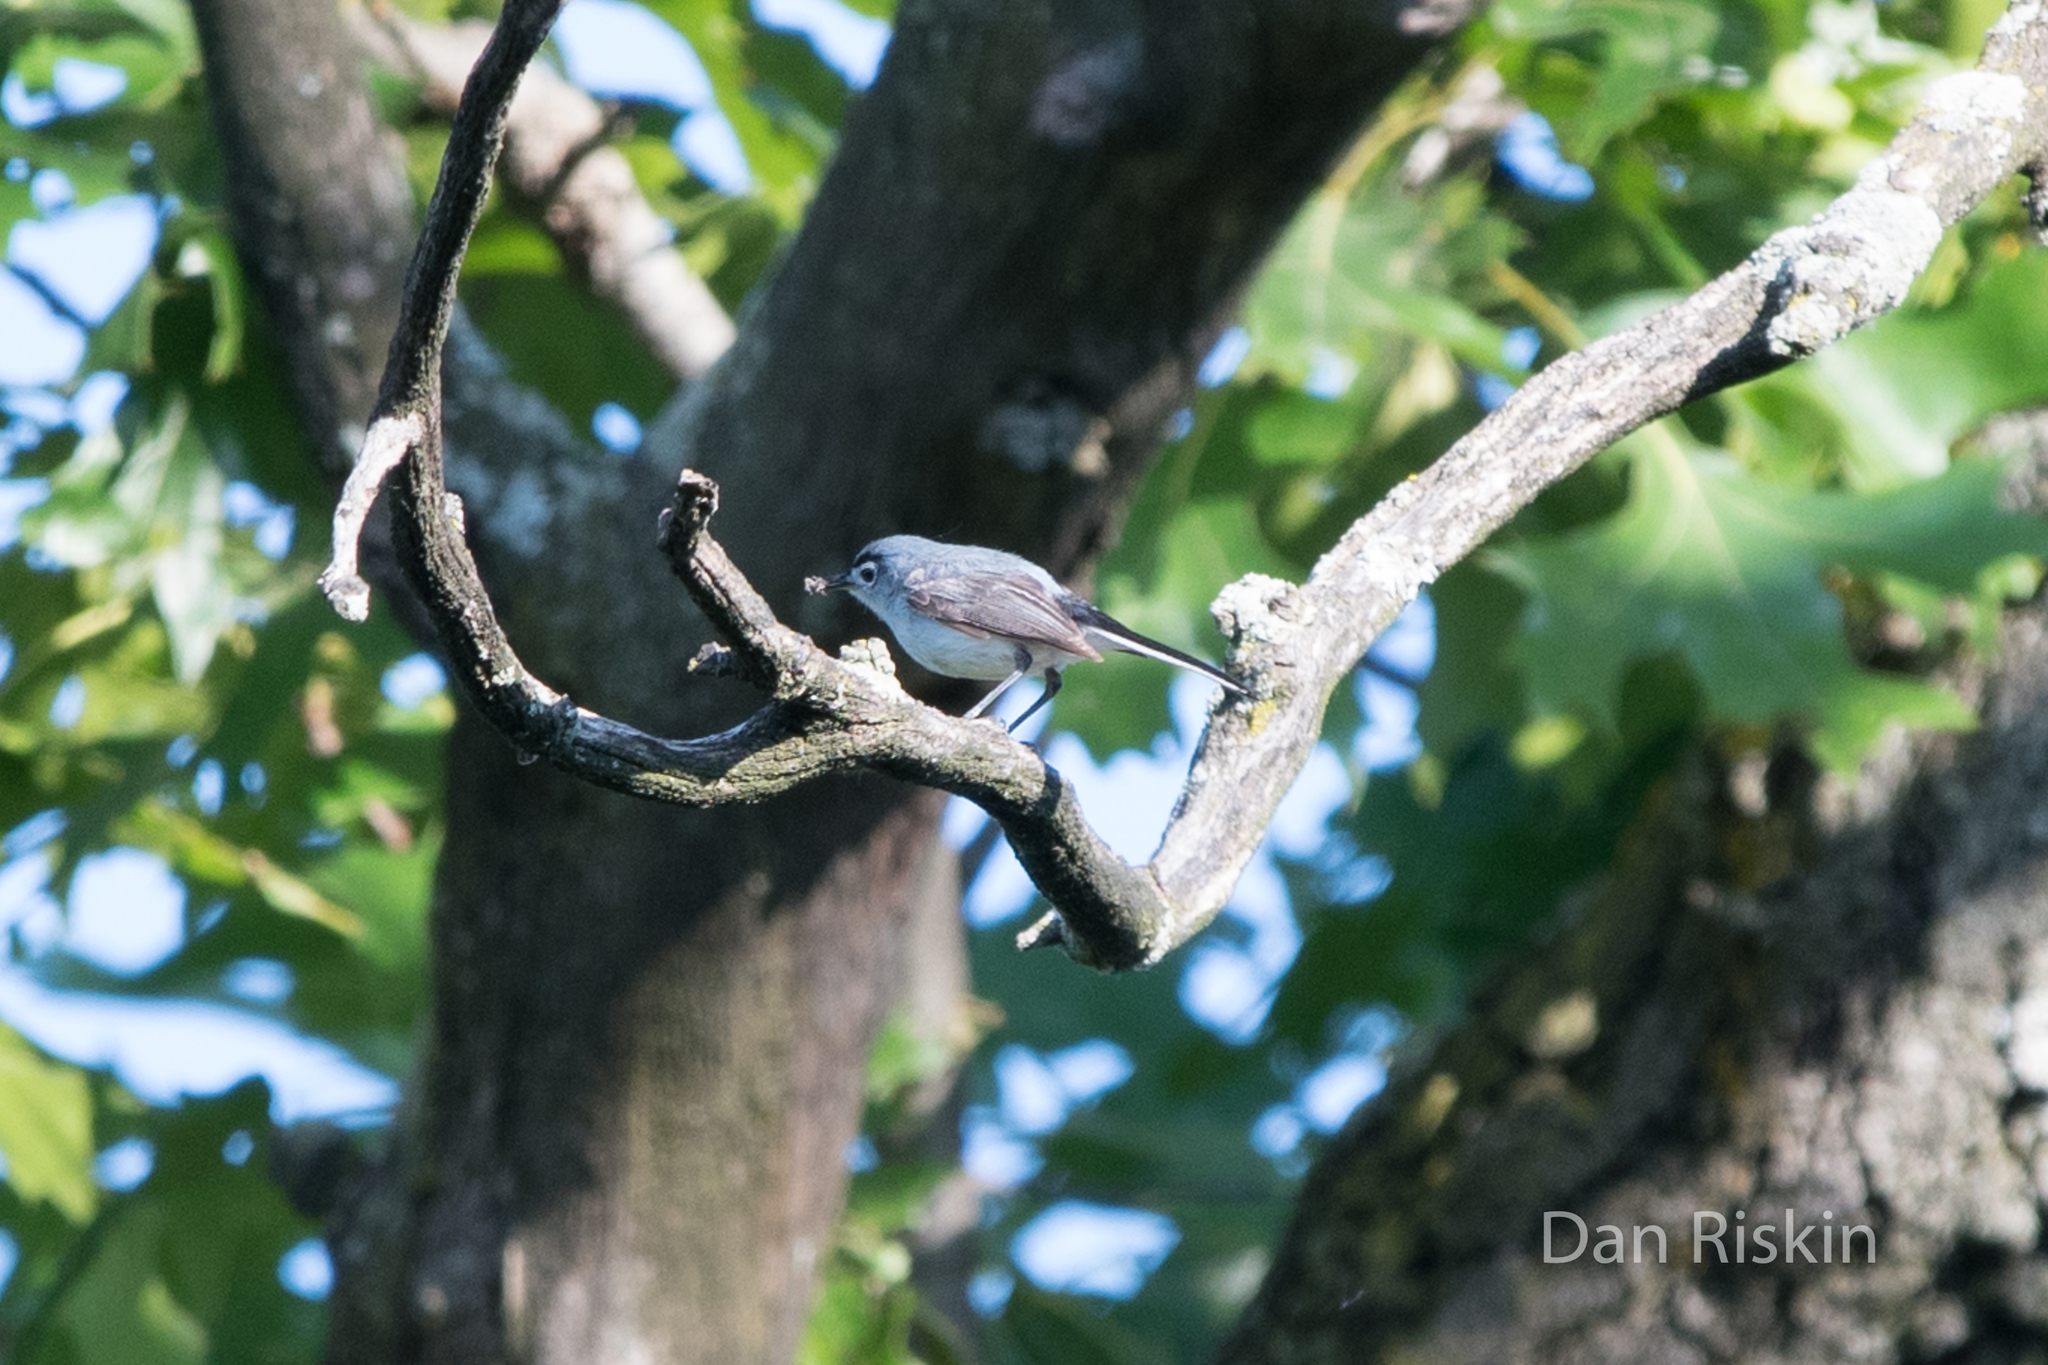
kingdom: Animalia
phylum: Chordata
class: Aves
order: Passeriformes
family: Polioptilidae
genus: Polioptila
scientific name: Polioptila caerulea
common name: Blue-gray gnatcatcher
